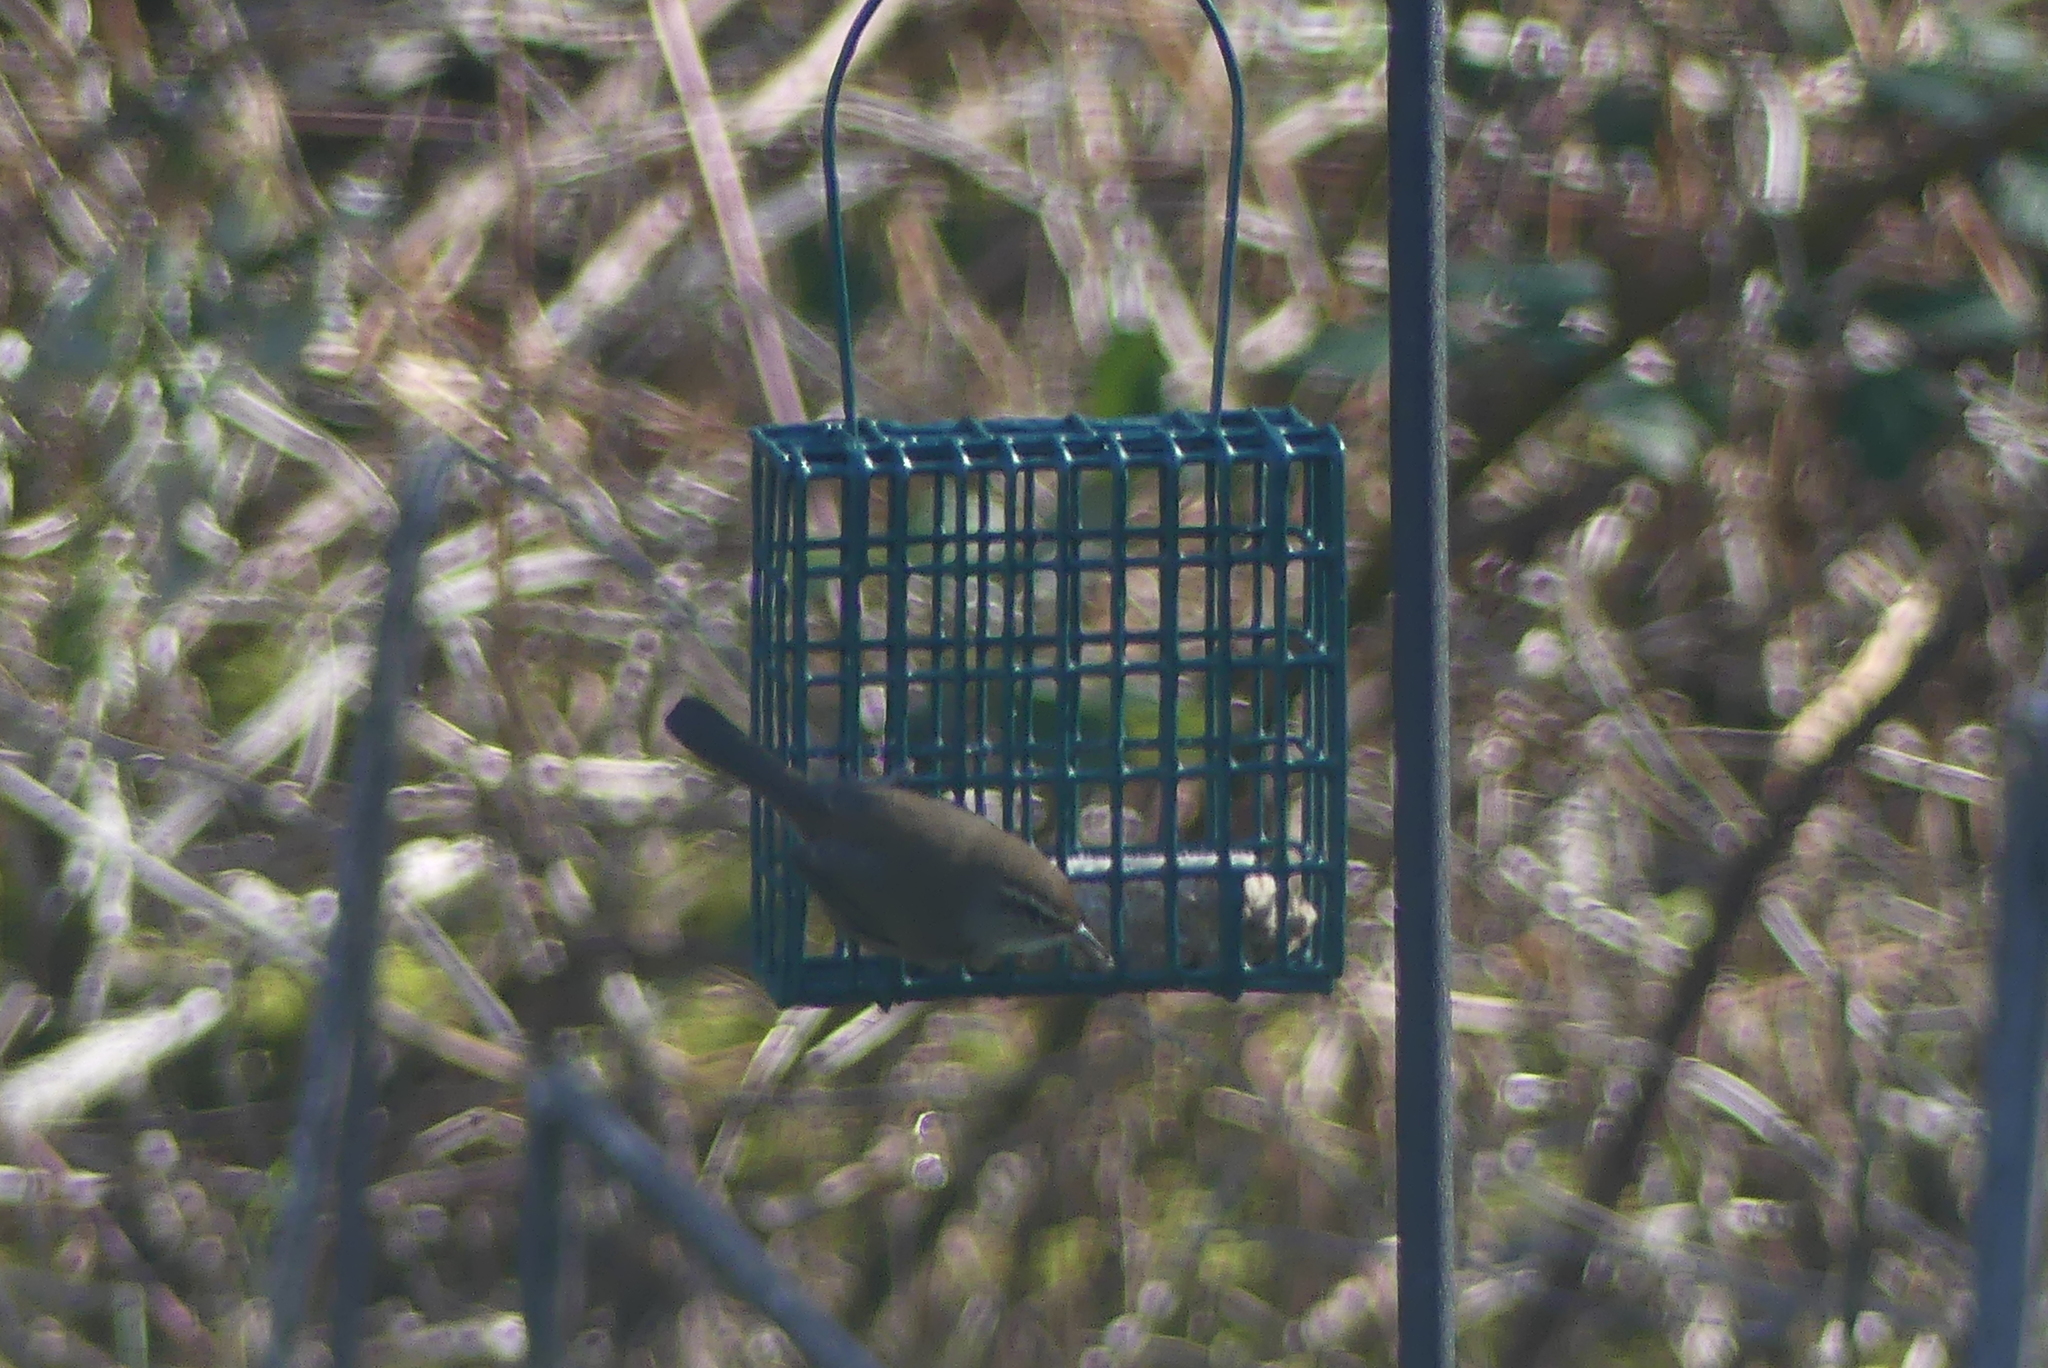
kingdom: Animalia
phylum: Chordata
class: Aves
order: Passeriformes
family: Troglodytidae
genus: Thryomanes
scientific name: Thryomanes bewickii
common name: Bewick's wren
